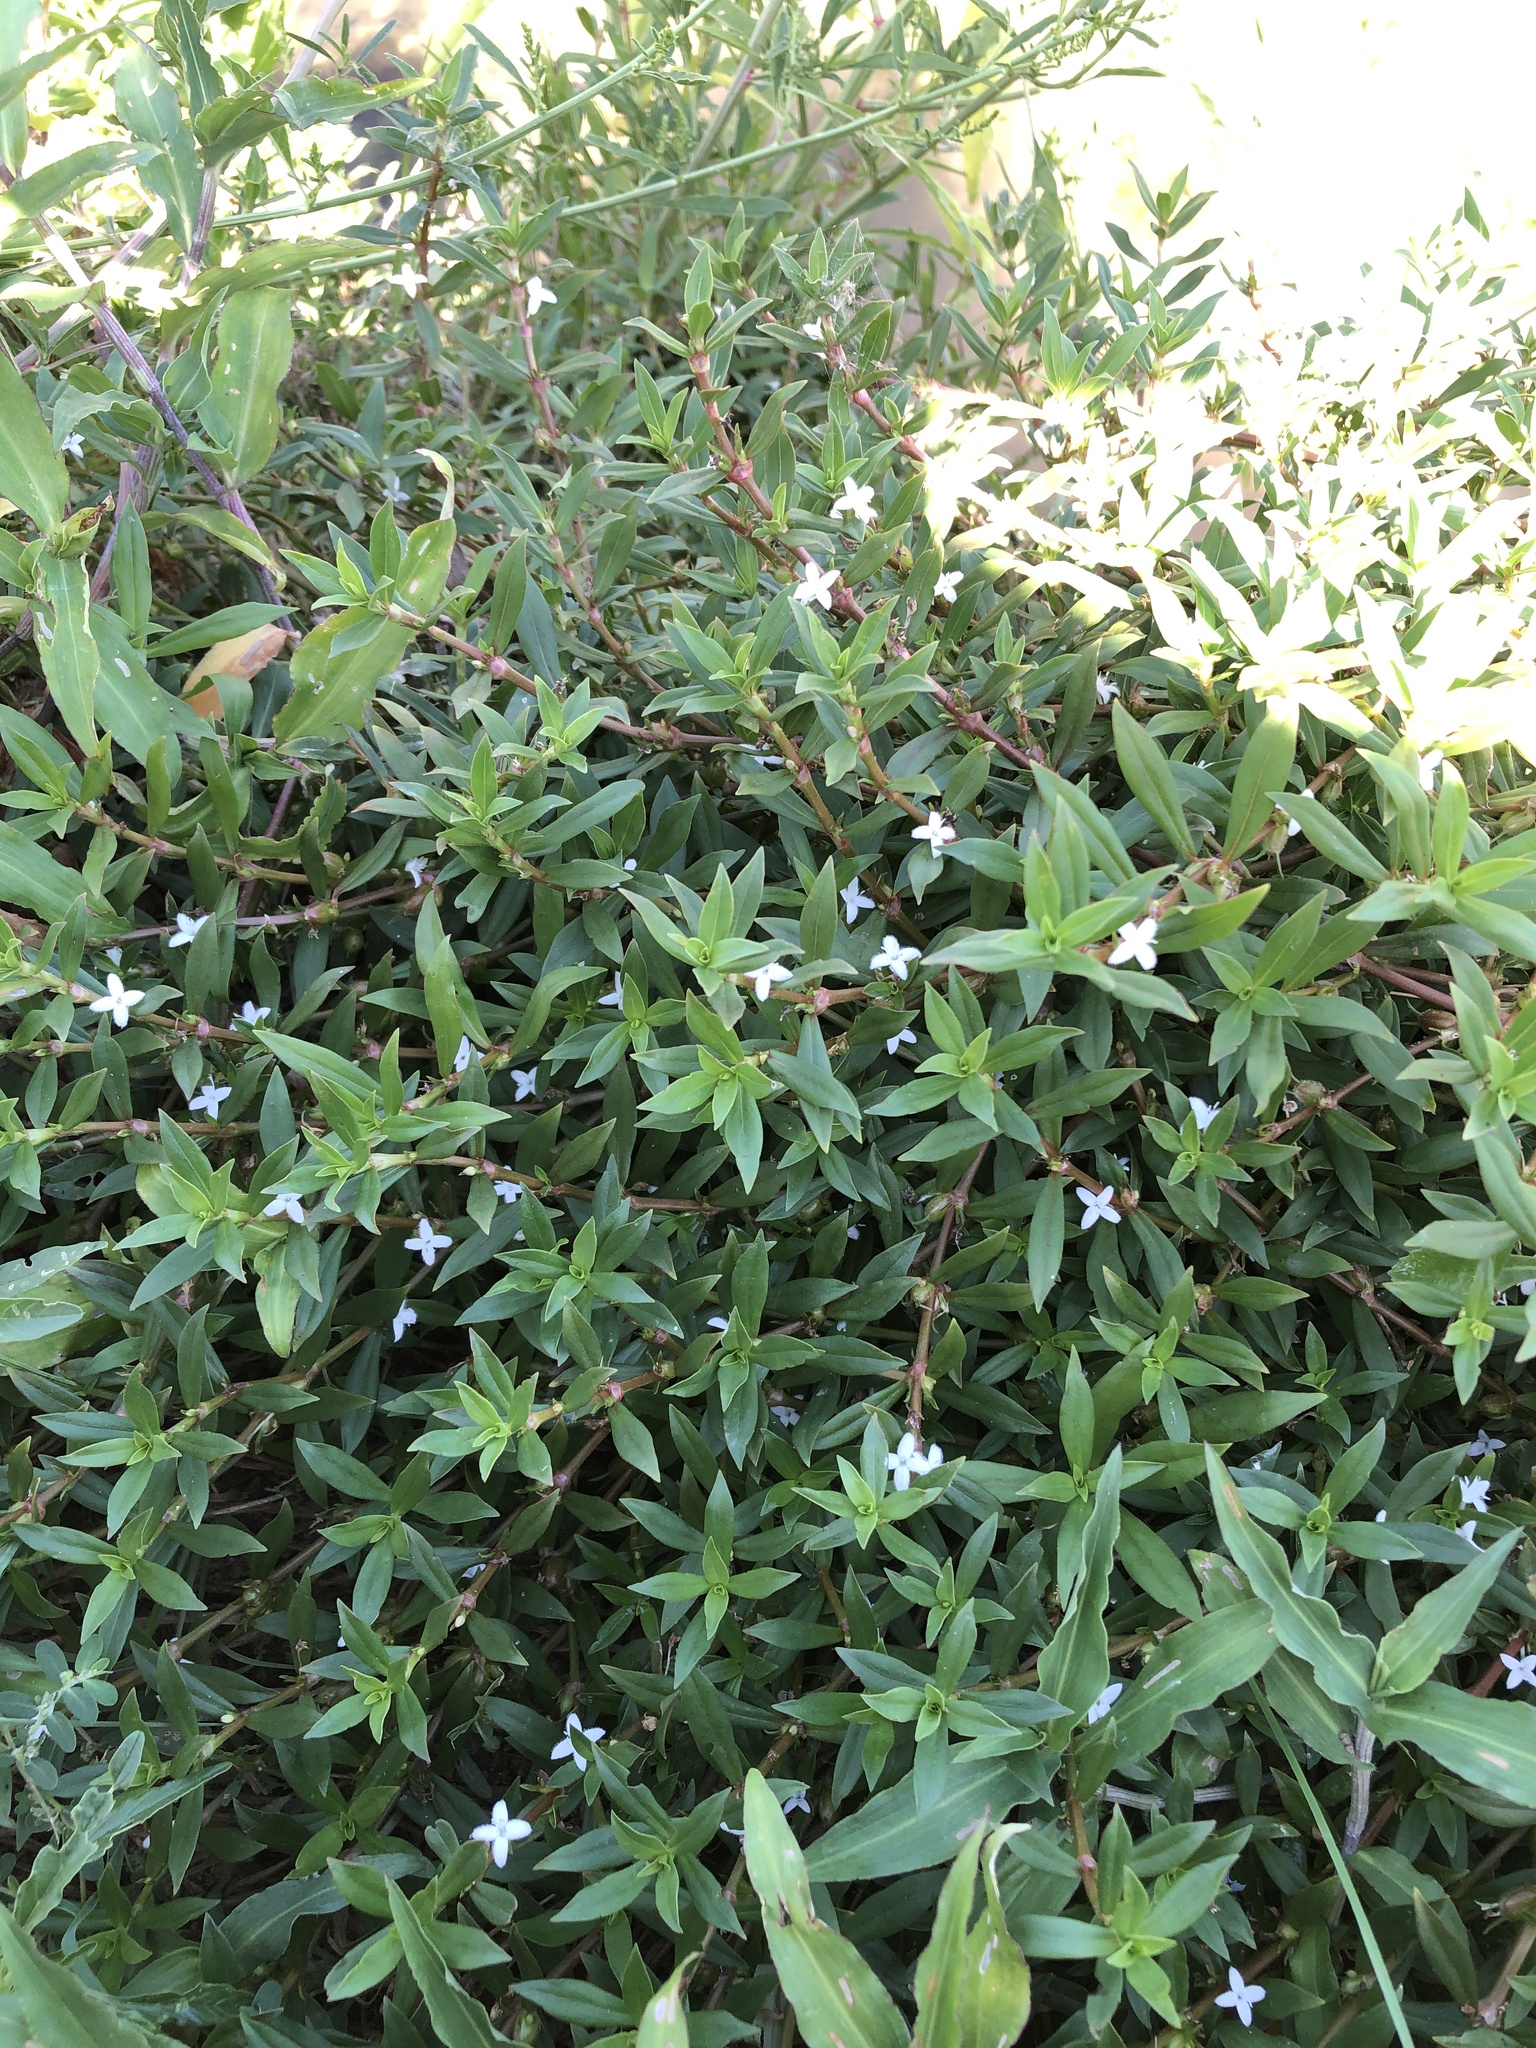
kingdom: Plantae
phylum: Tracheophyta
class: Magnoliopsida
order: Gentianales
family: Rubiaceae
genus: Diodia
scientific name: Diodia virginiana
